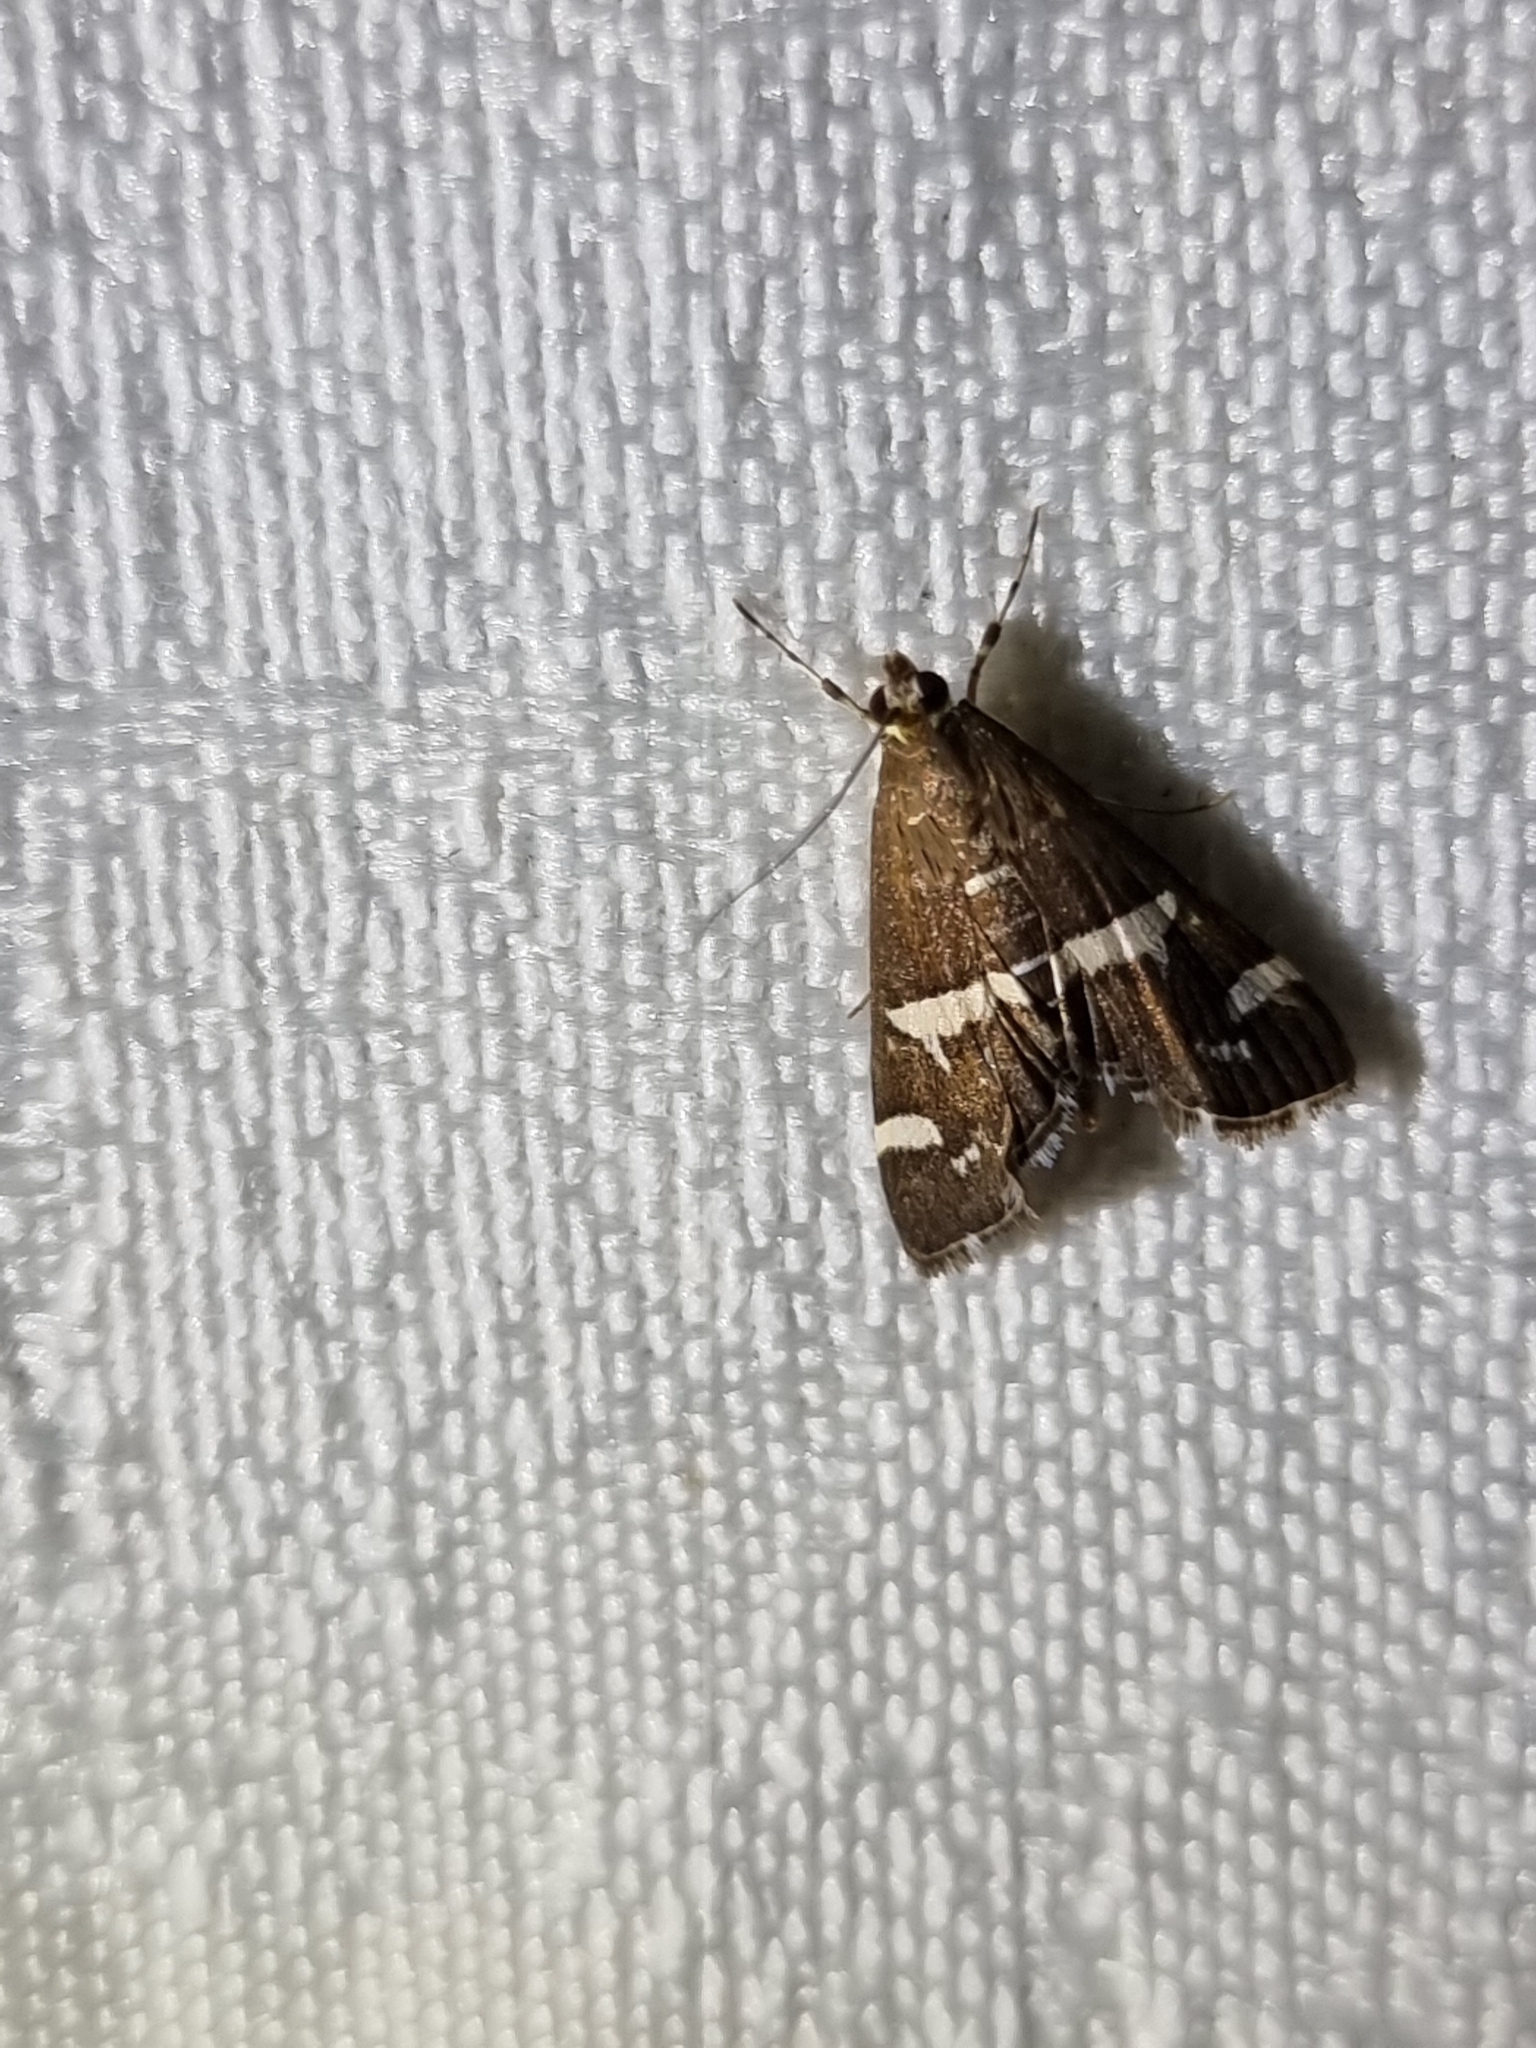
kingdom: Animalia
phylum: Arthropoda
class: Insecta
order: Lepidoptera
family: Crambidae
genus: Spoladea
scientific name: Spoladea recurvalis
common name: Beet webworm moth
